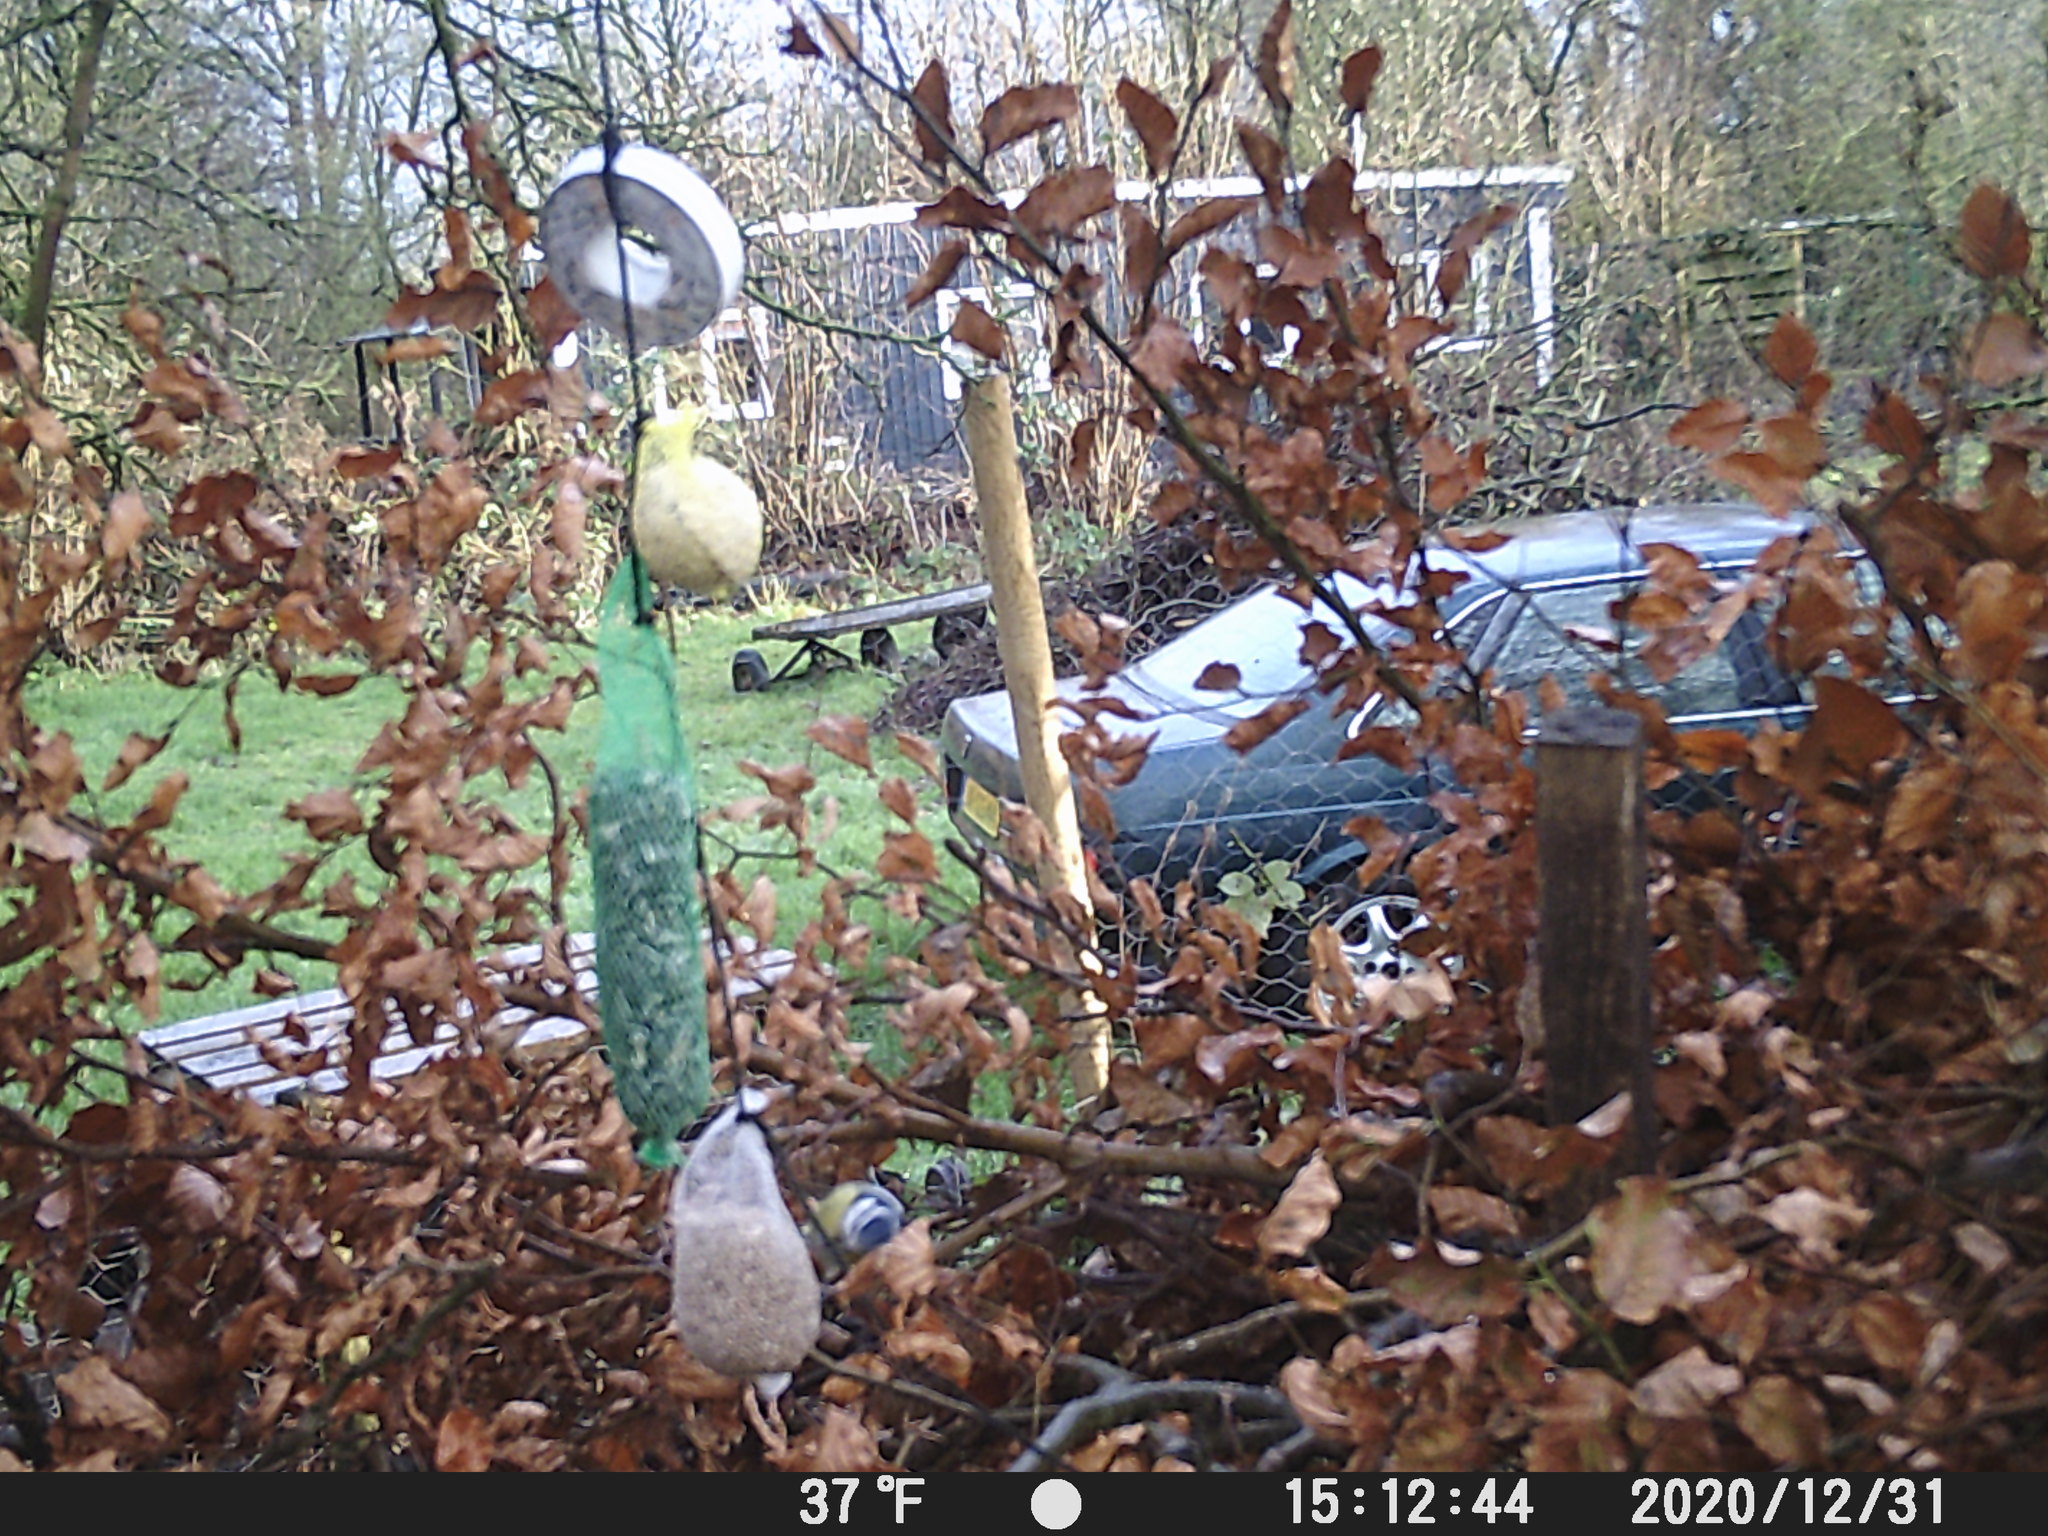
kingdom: Animalia
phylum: Chordata
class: Aves
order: Passeriformes
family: Paridae
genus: Cyanistes
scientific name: Cyanistes caeruleus
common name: Eurasian blue tit
